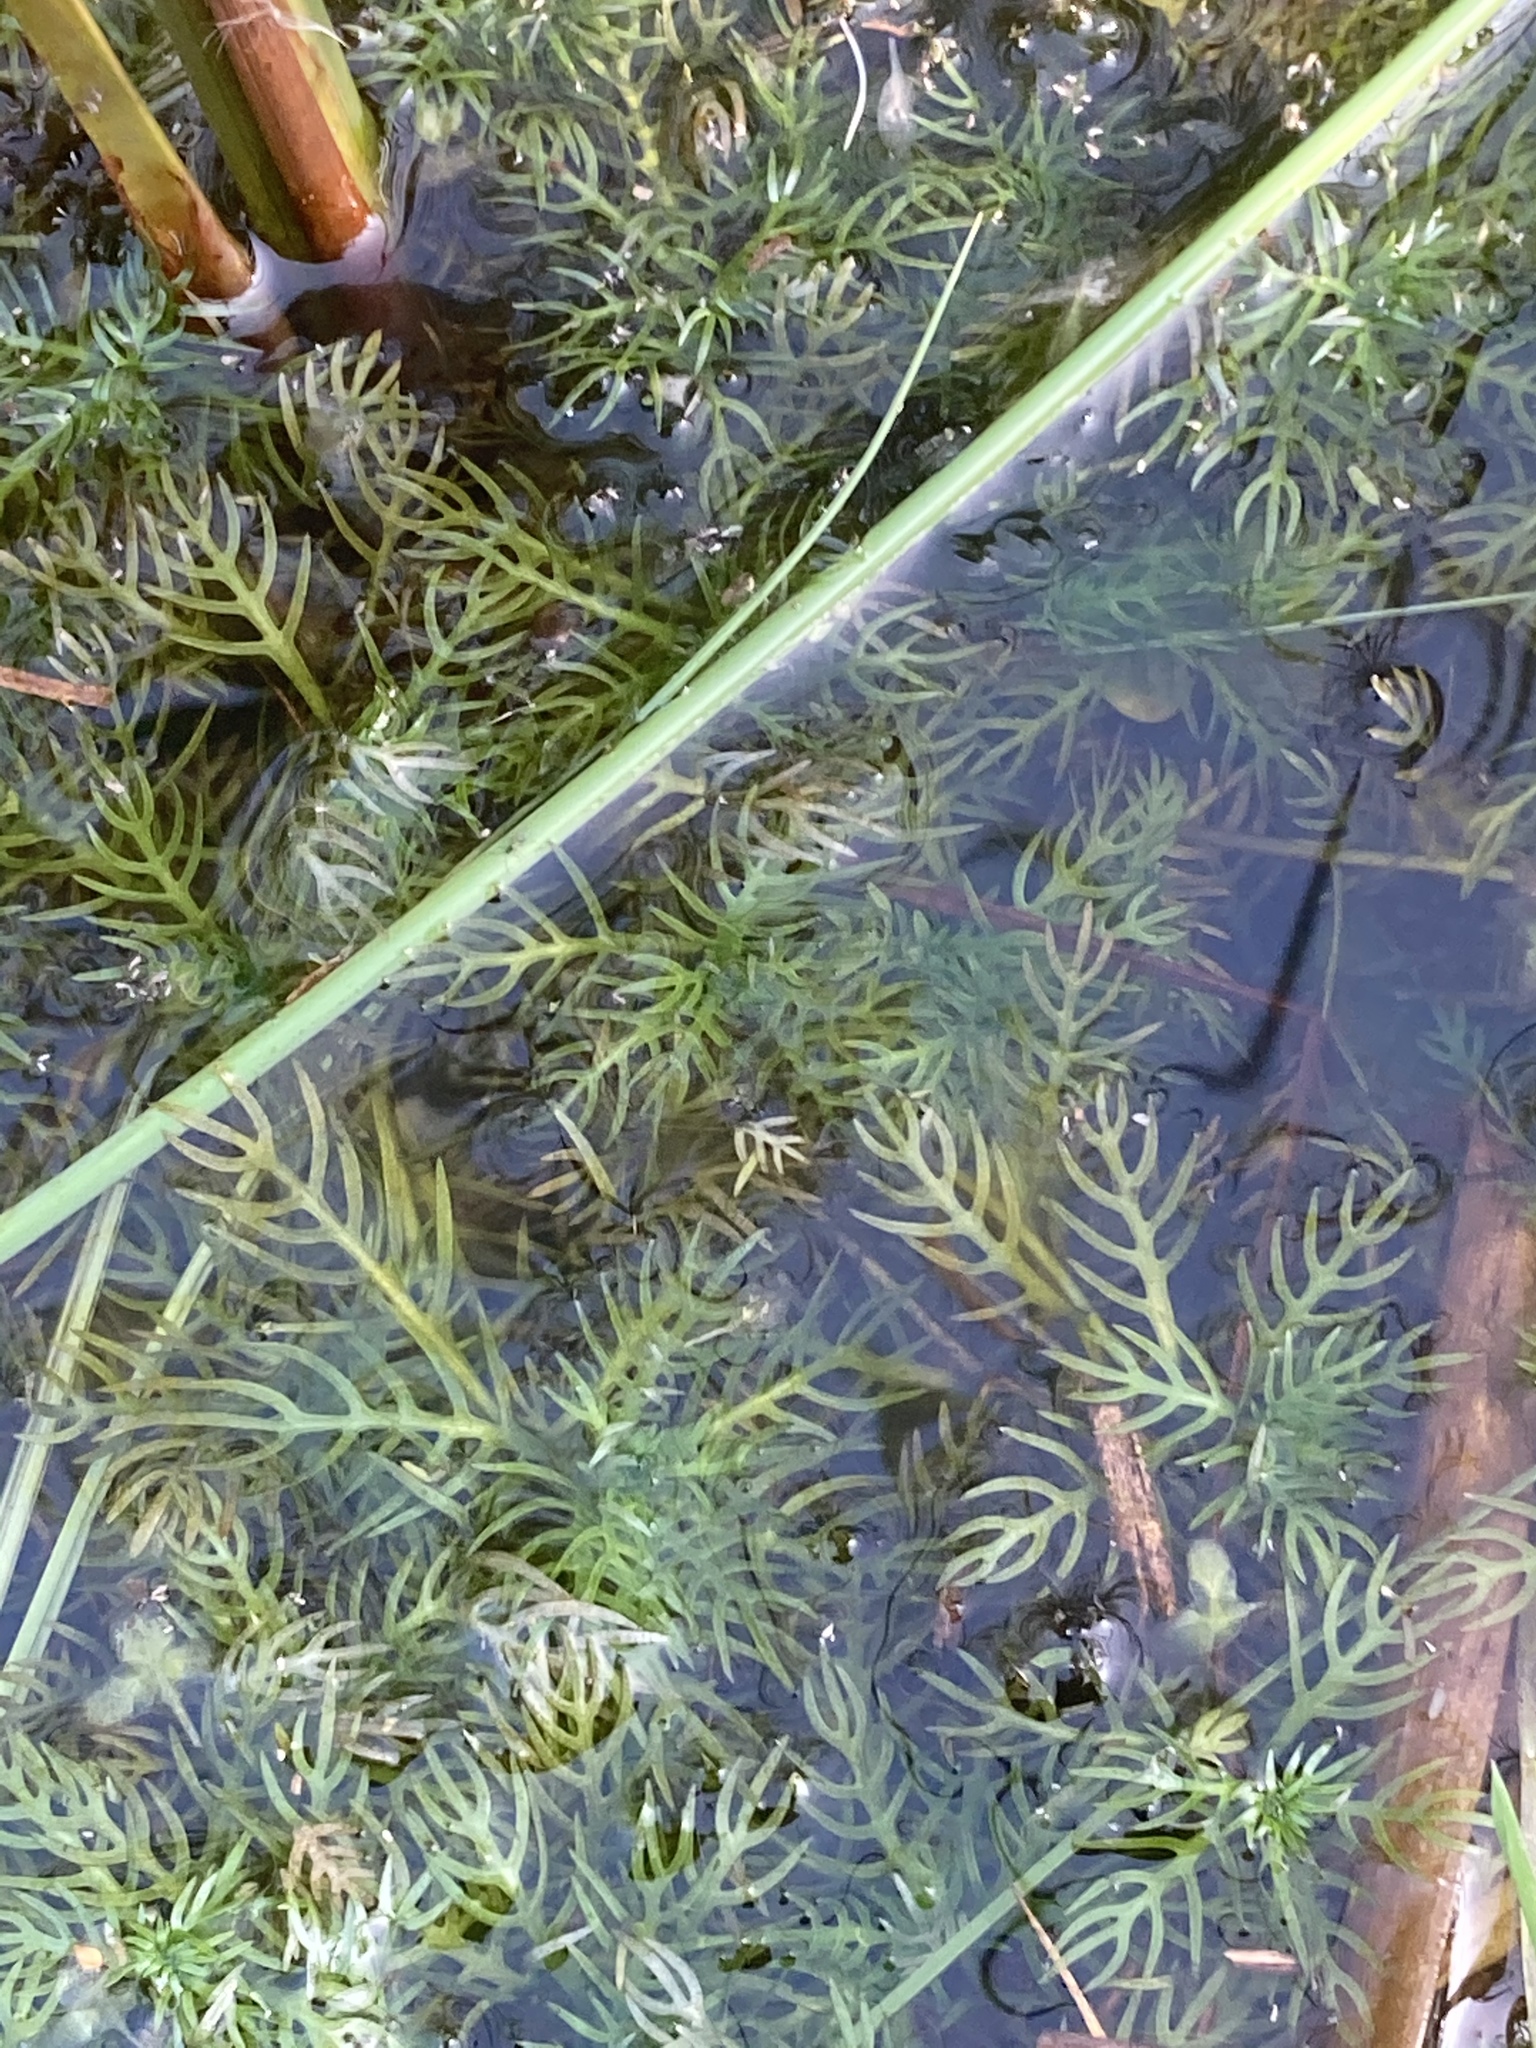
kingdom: Plantae
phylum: Tracheophyta
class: Magnoliopsida
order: Ericales
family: Primulaceae
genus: Hottonia
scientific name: Hottonia palustris
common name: Water-violet
